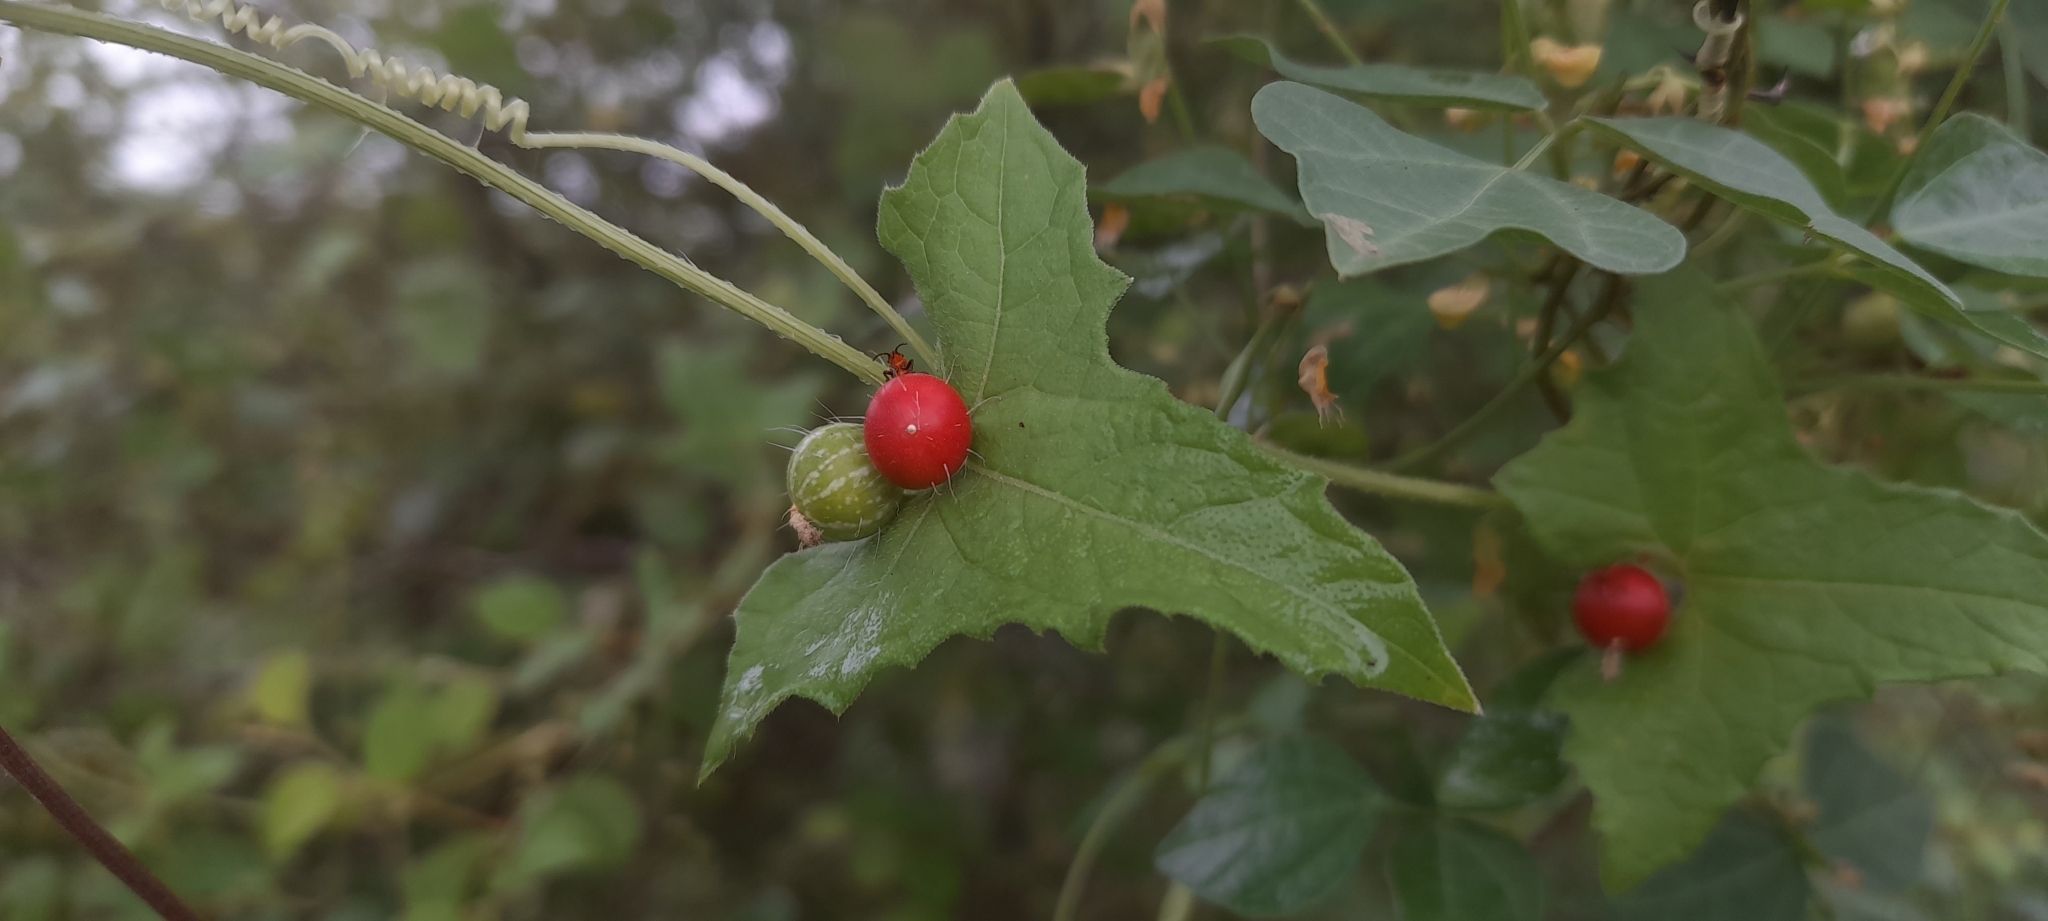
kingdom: Plantae
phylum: Tracheophyta
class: Magnoliopsida
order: Cucurbitales
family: Cucurbitaceae
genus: Cucumis
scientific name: Cucumis maderaspatanus
